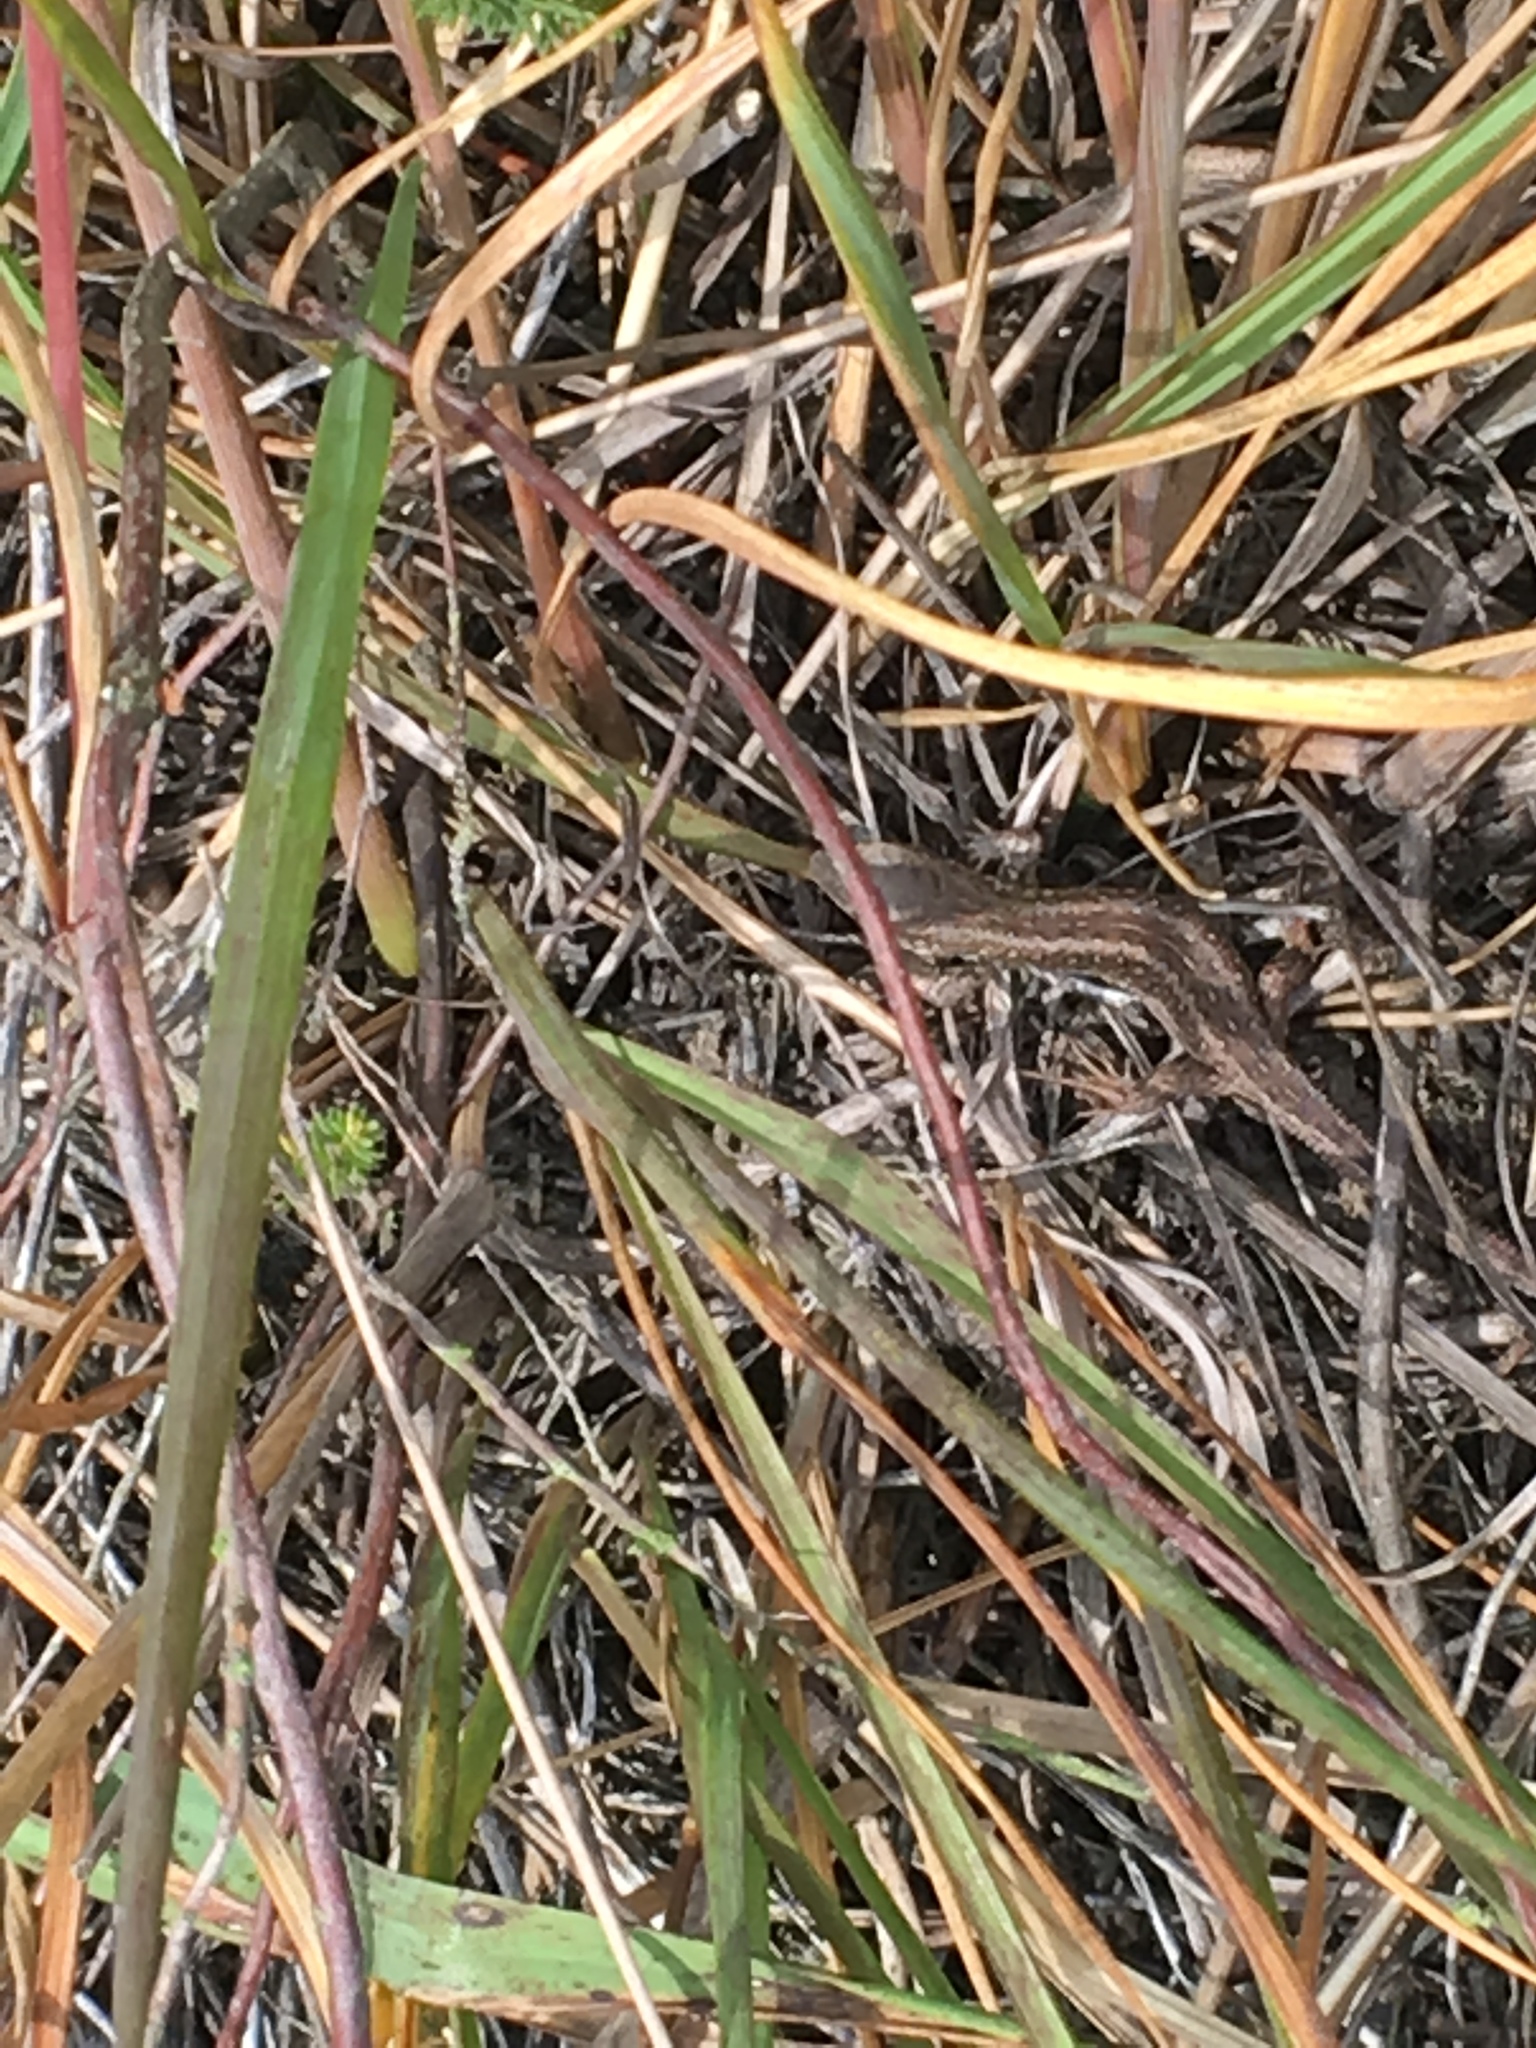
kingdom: Animalia
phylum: Chordata
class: Squamata
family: Lacertidae
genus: Lacerta
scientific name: Lacerta agilis
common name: Sand lizard
